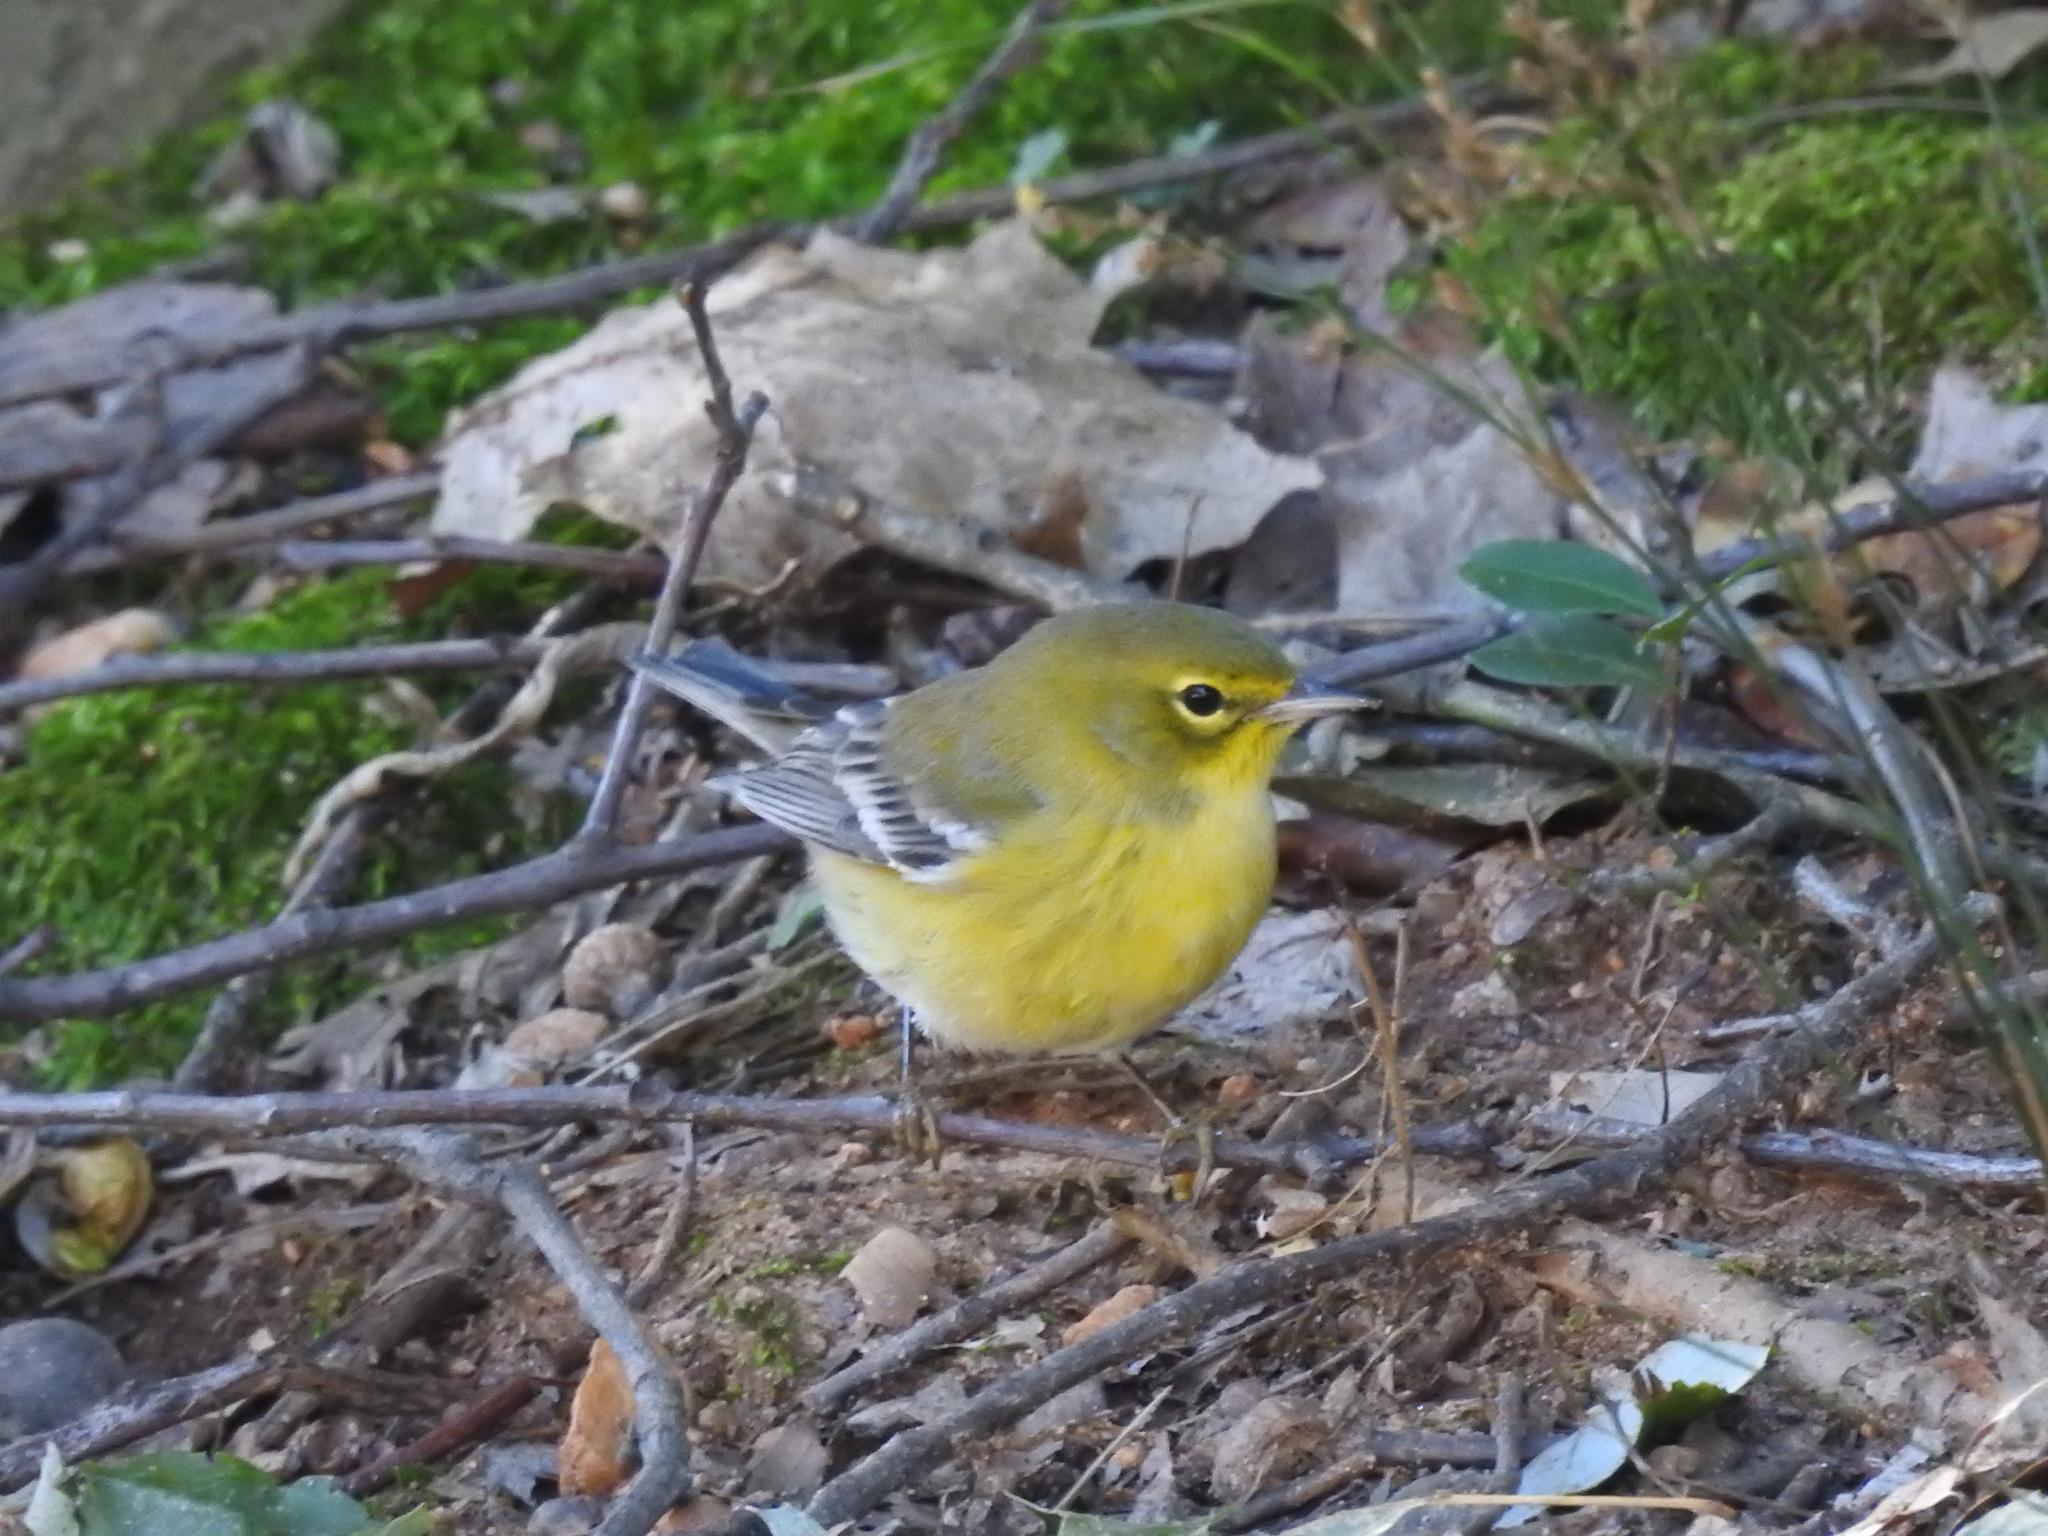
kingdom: Animalia
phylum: Chordata
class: Aves
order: Passeriformes
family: Parulidae
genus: Setophaga
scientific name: Setophaga pinus
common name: Pine warbler
